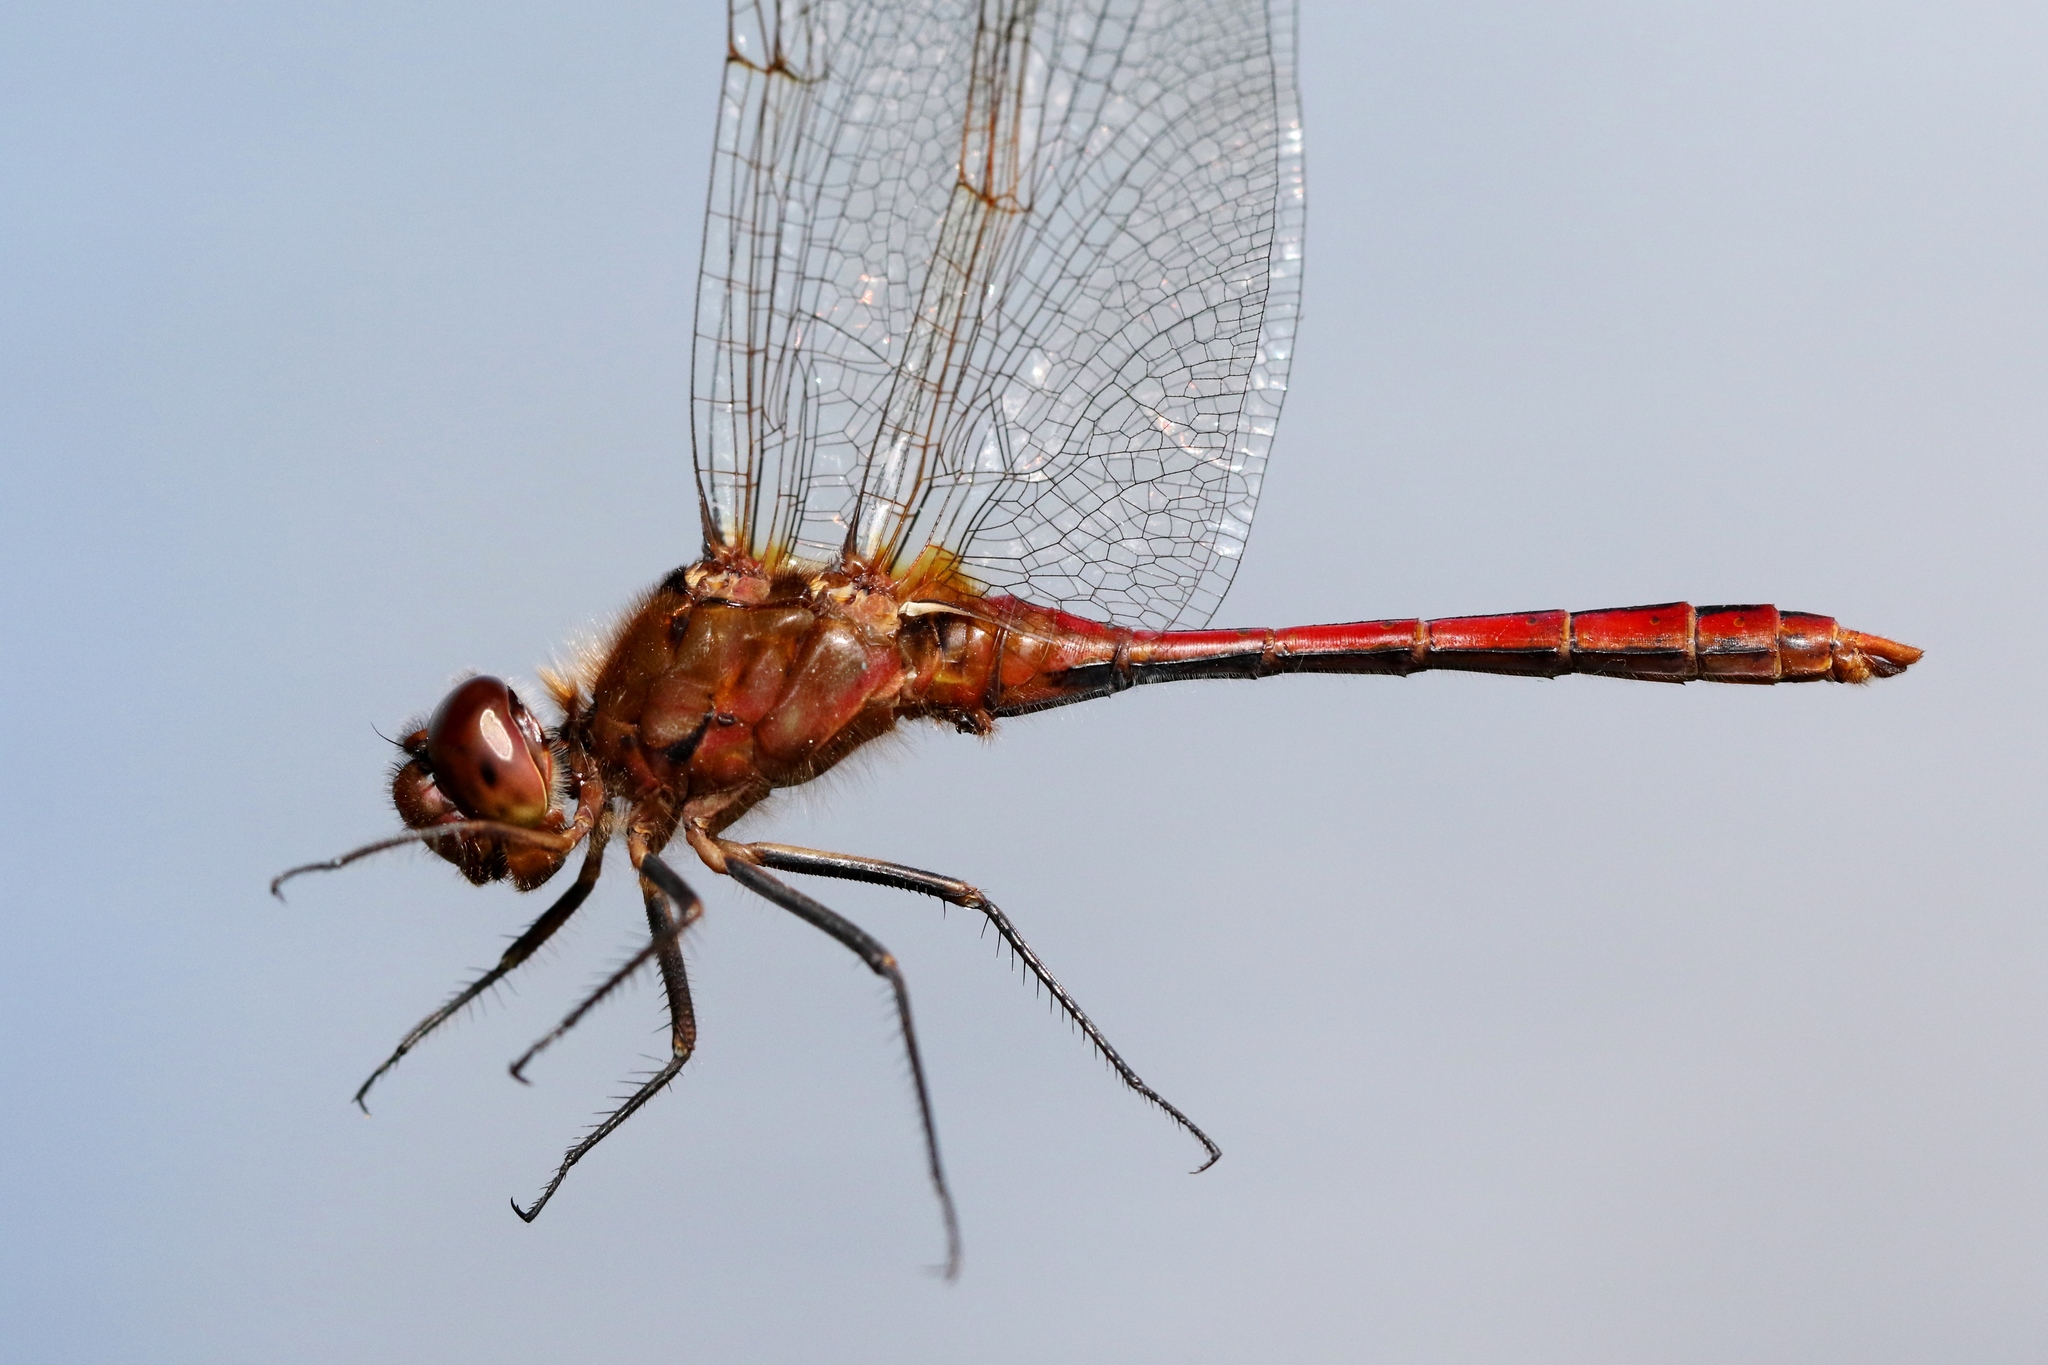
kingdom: Animalia
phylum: Arthropoda
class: Insecta
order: Odonata
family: Libellulidae
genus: Sympetrum
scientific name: Sympetrum costiferum
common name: Saffron-winged meadowhawk
